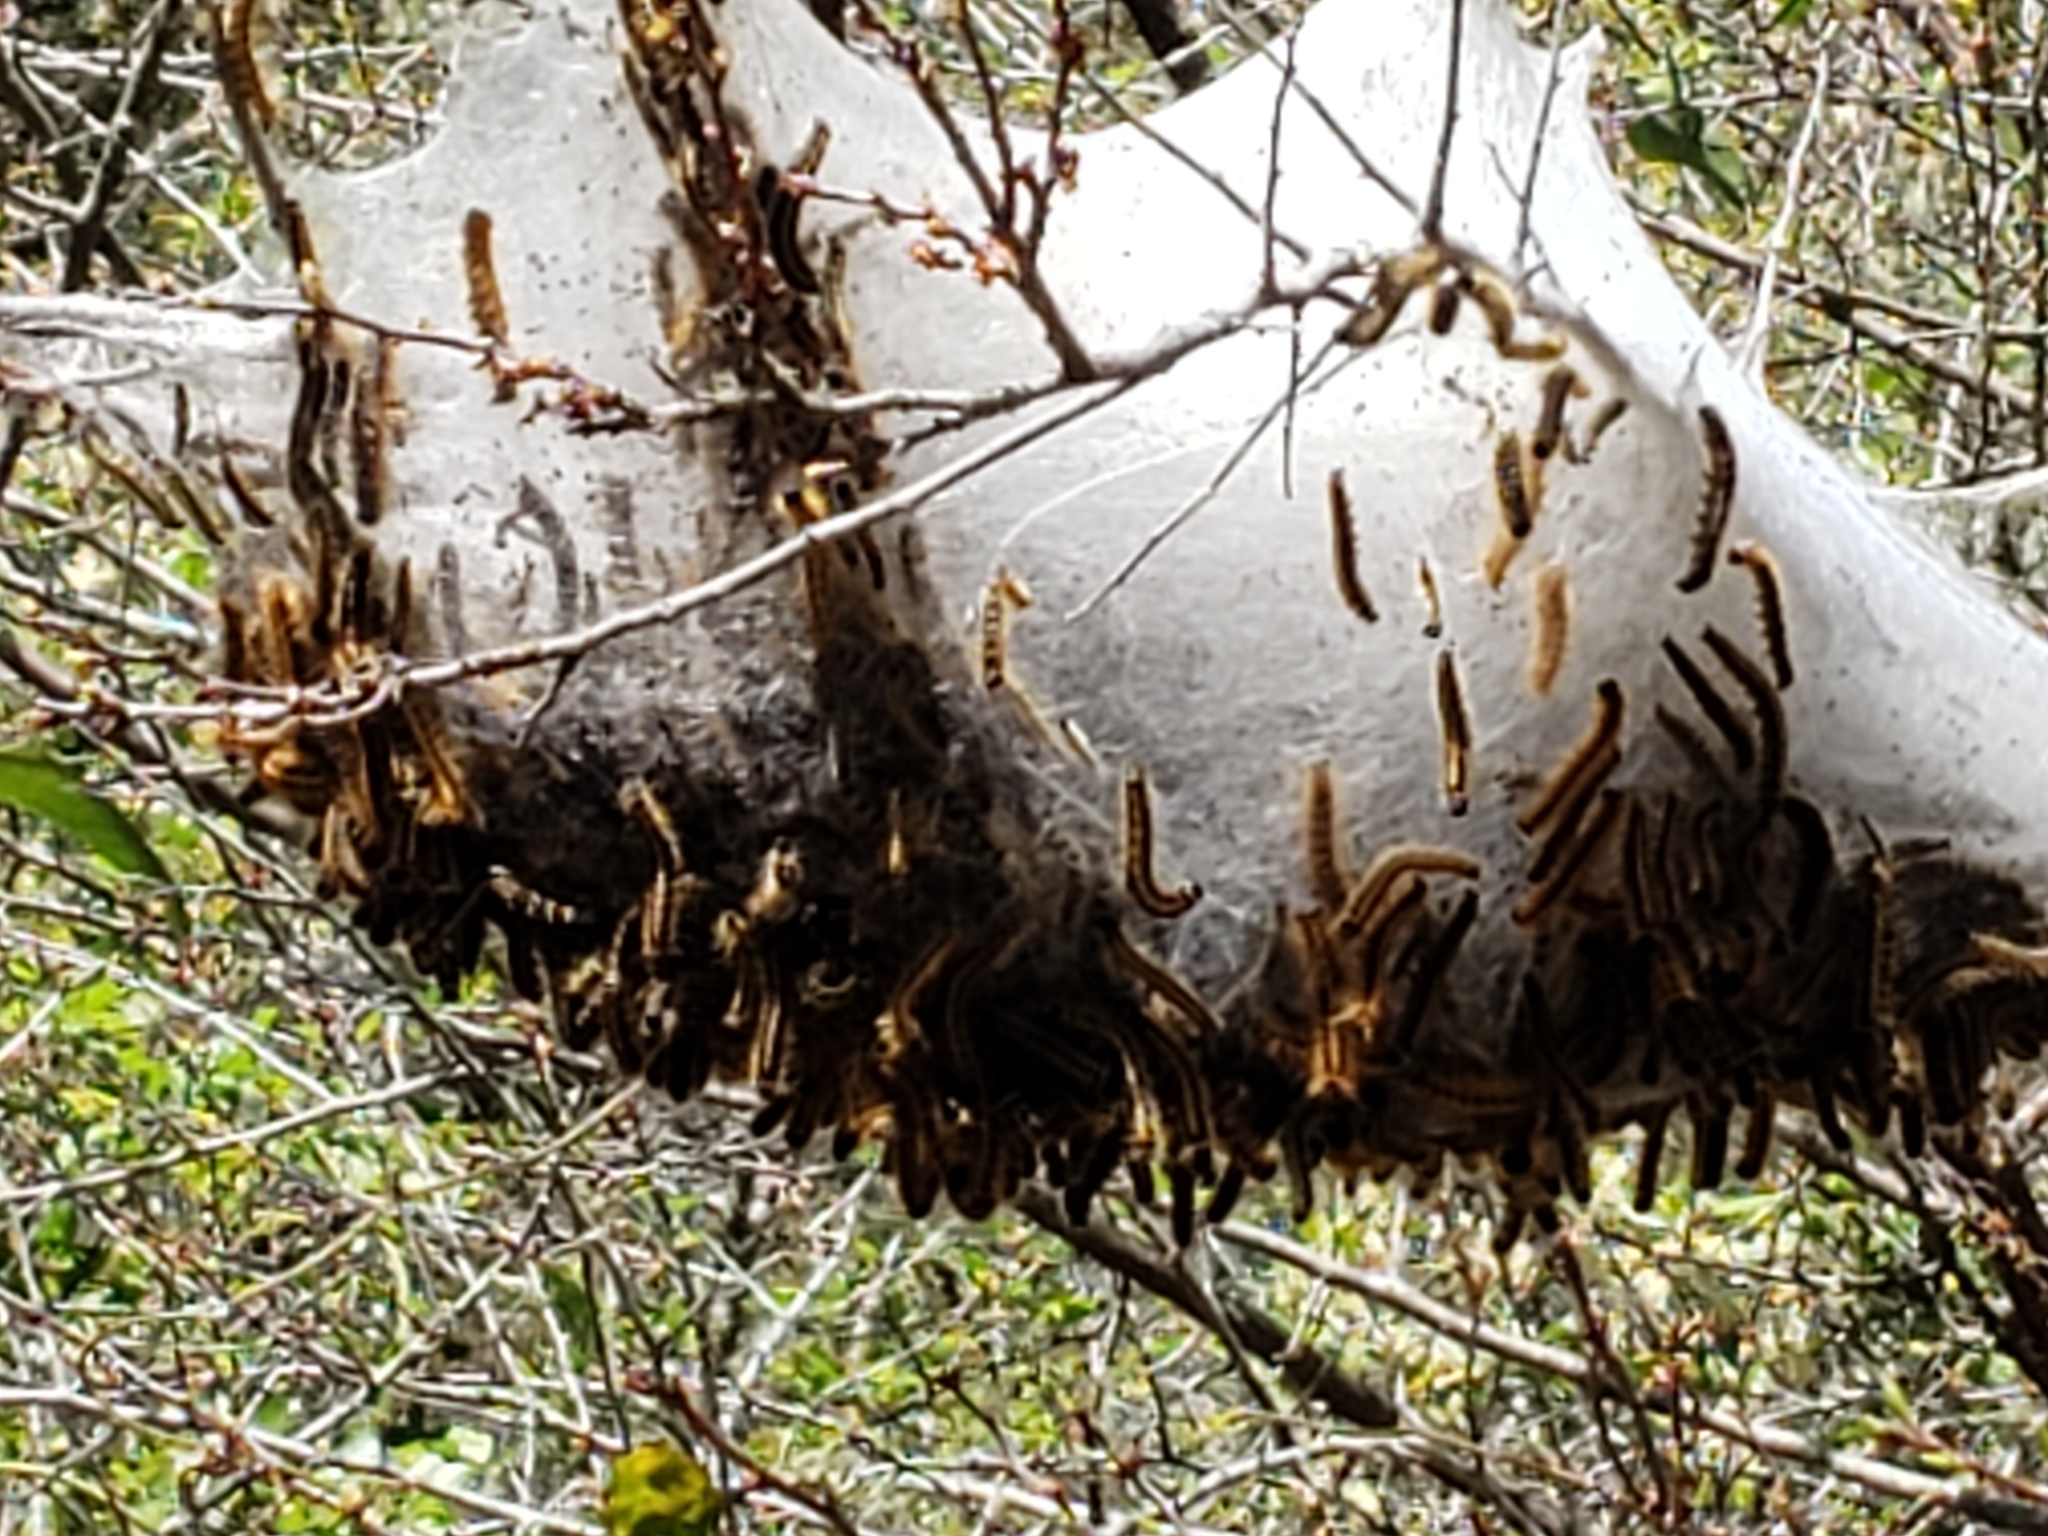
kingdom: Animalia
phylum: Arthropoda
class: Insecta
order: Lepidoptera
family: Lasiocampidae
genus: Malacosoma
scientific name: Malacosoma americana
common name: Eastern tent caterpillar moth
